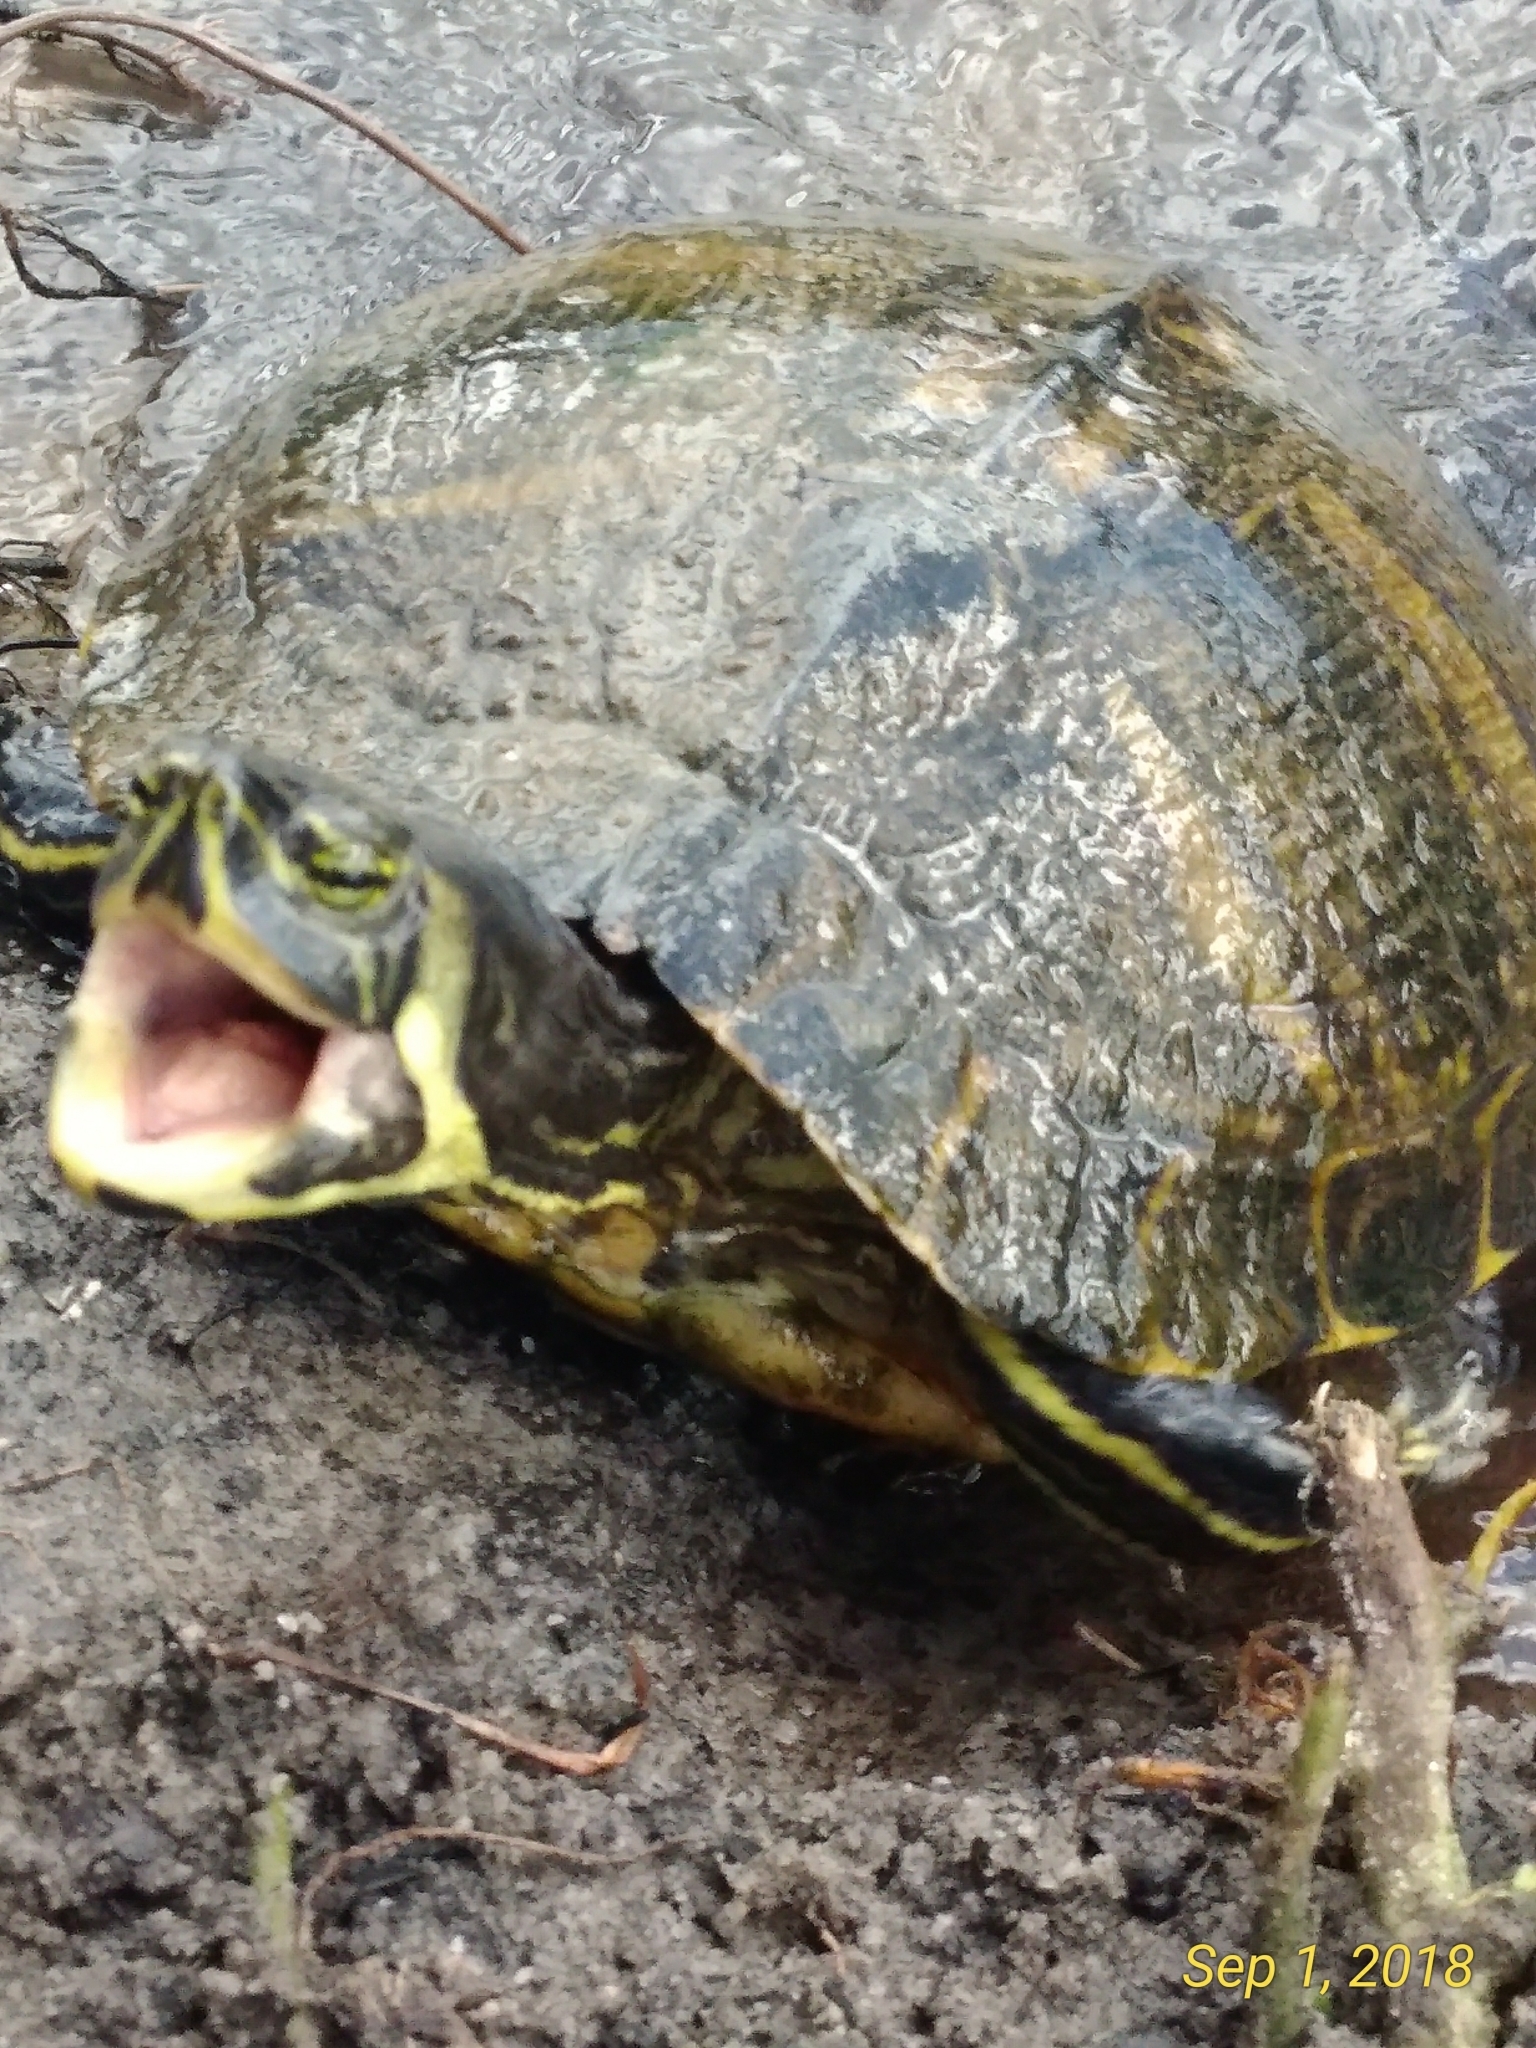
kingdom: Animalia
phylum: Chordata
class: Testudines
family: Emydidae
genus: Trachemys
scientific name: Trachemys scripta
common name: Slider
